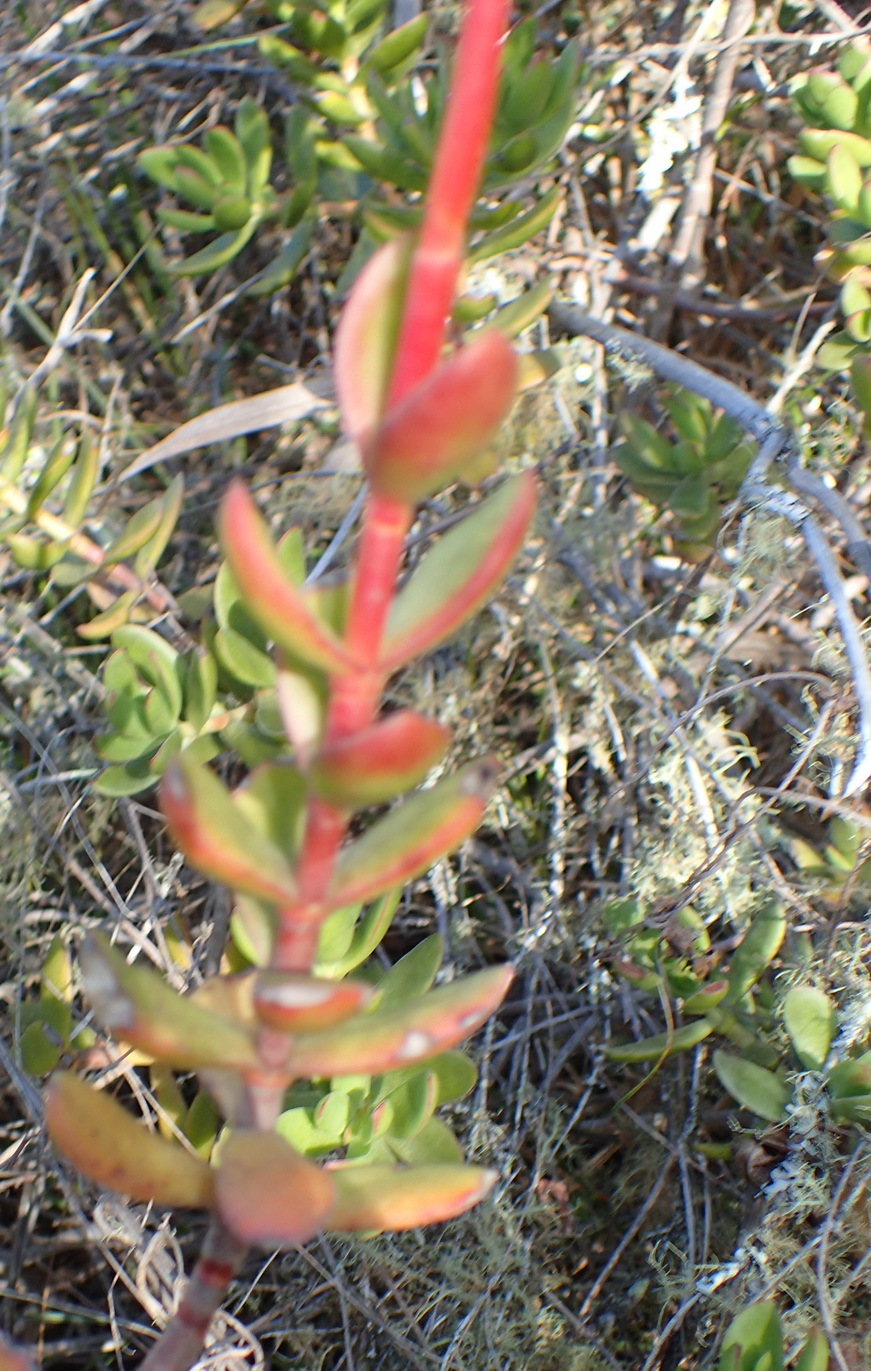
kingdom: Plantae
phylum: Tracheophyta
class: Magnoliopsida
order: Saxifragales
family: Crassulaceae
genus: Crassula
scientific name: Crassula rubricaulis
